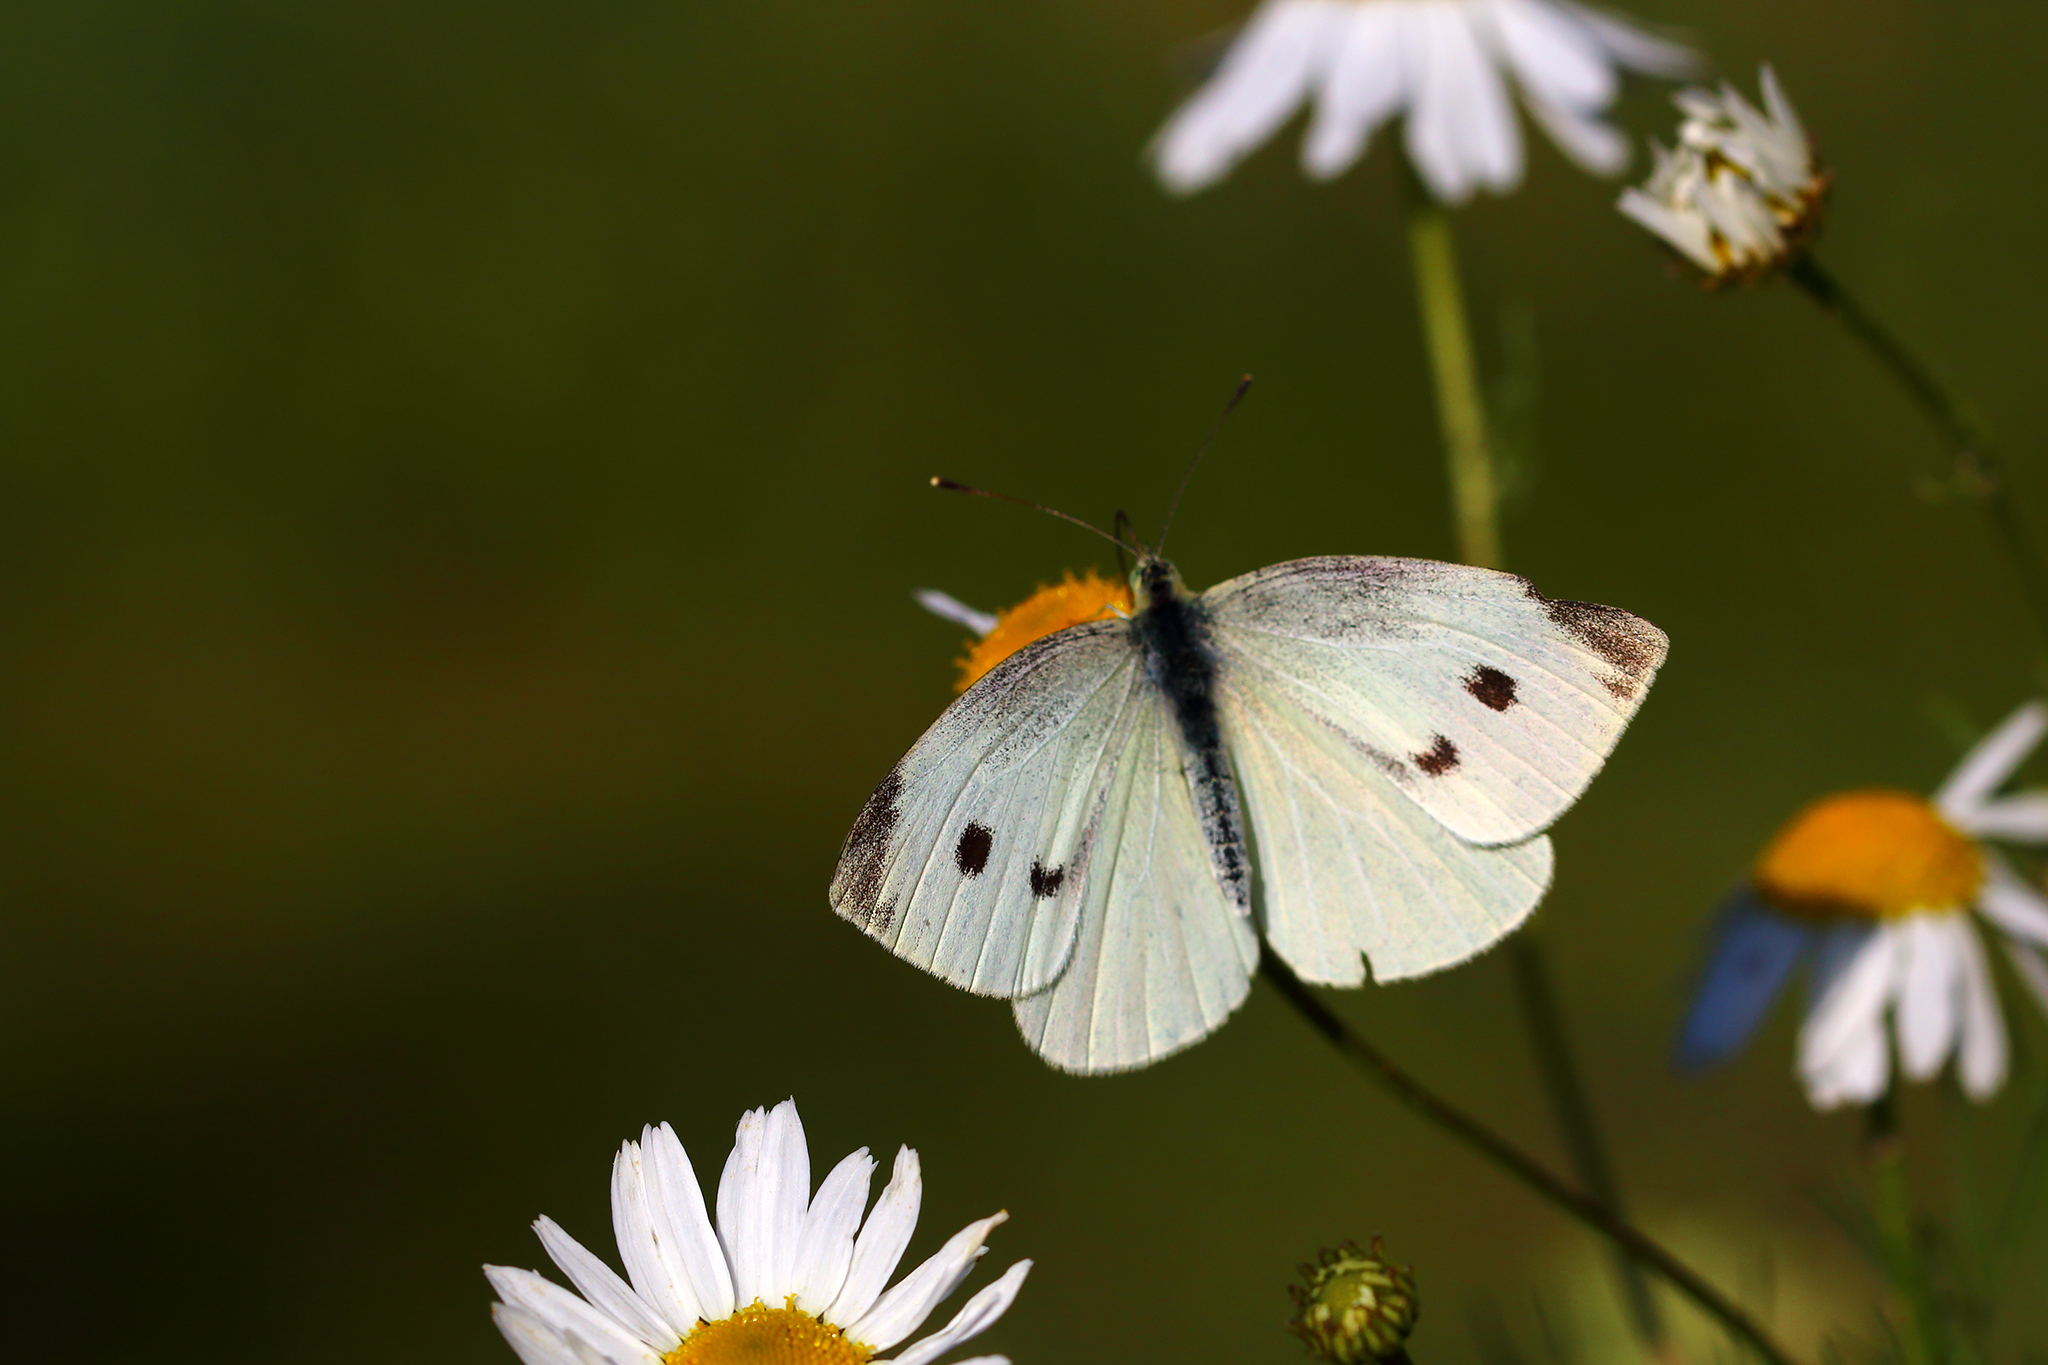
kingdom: Animalia
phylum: Arthropoda
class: Insecta
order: Lepidoptera
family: Pieridae
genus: Pieris
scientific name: Pieris rapae
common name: Small white
